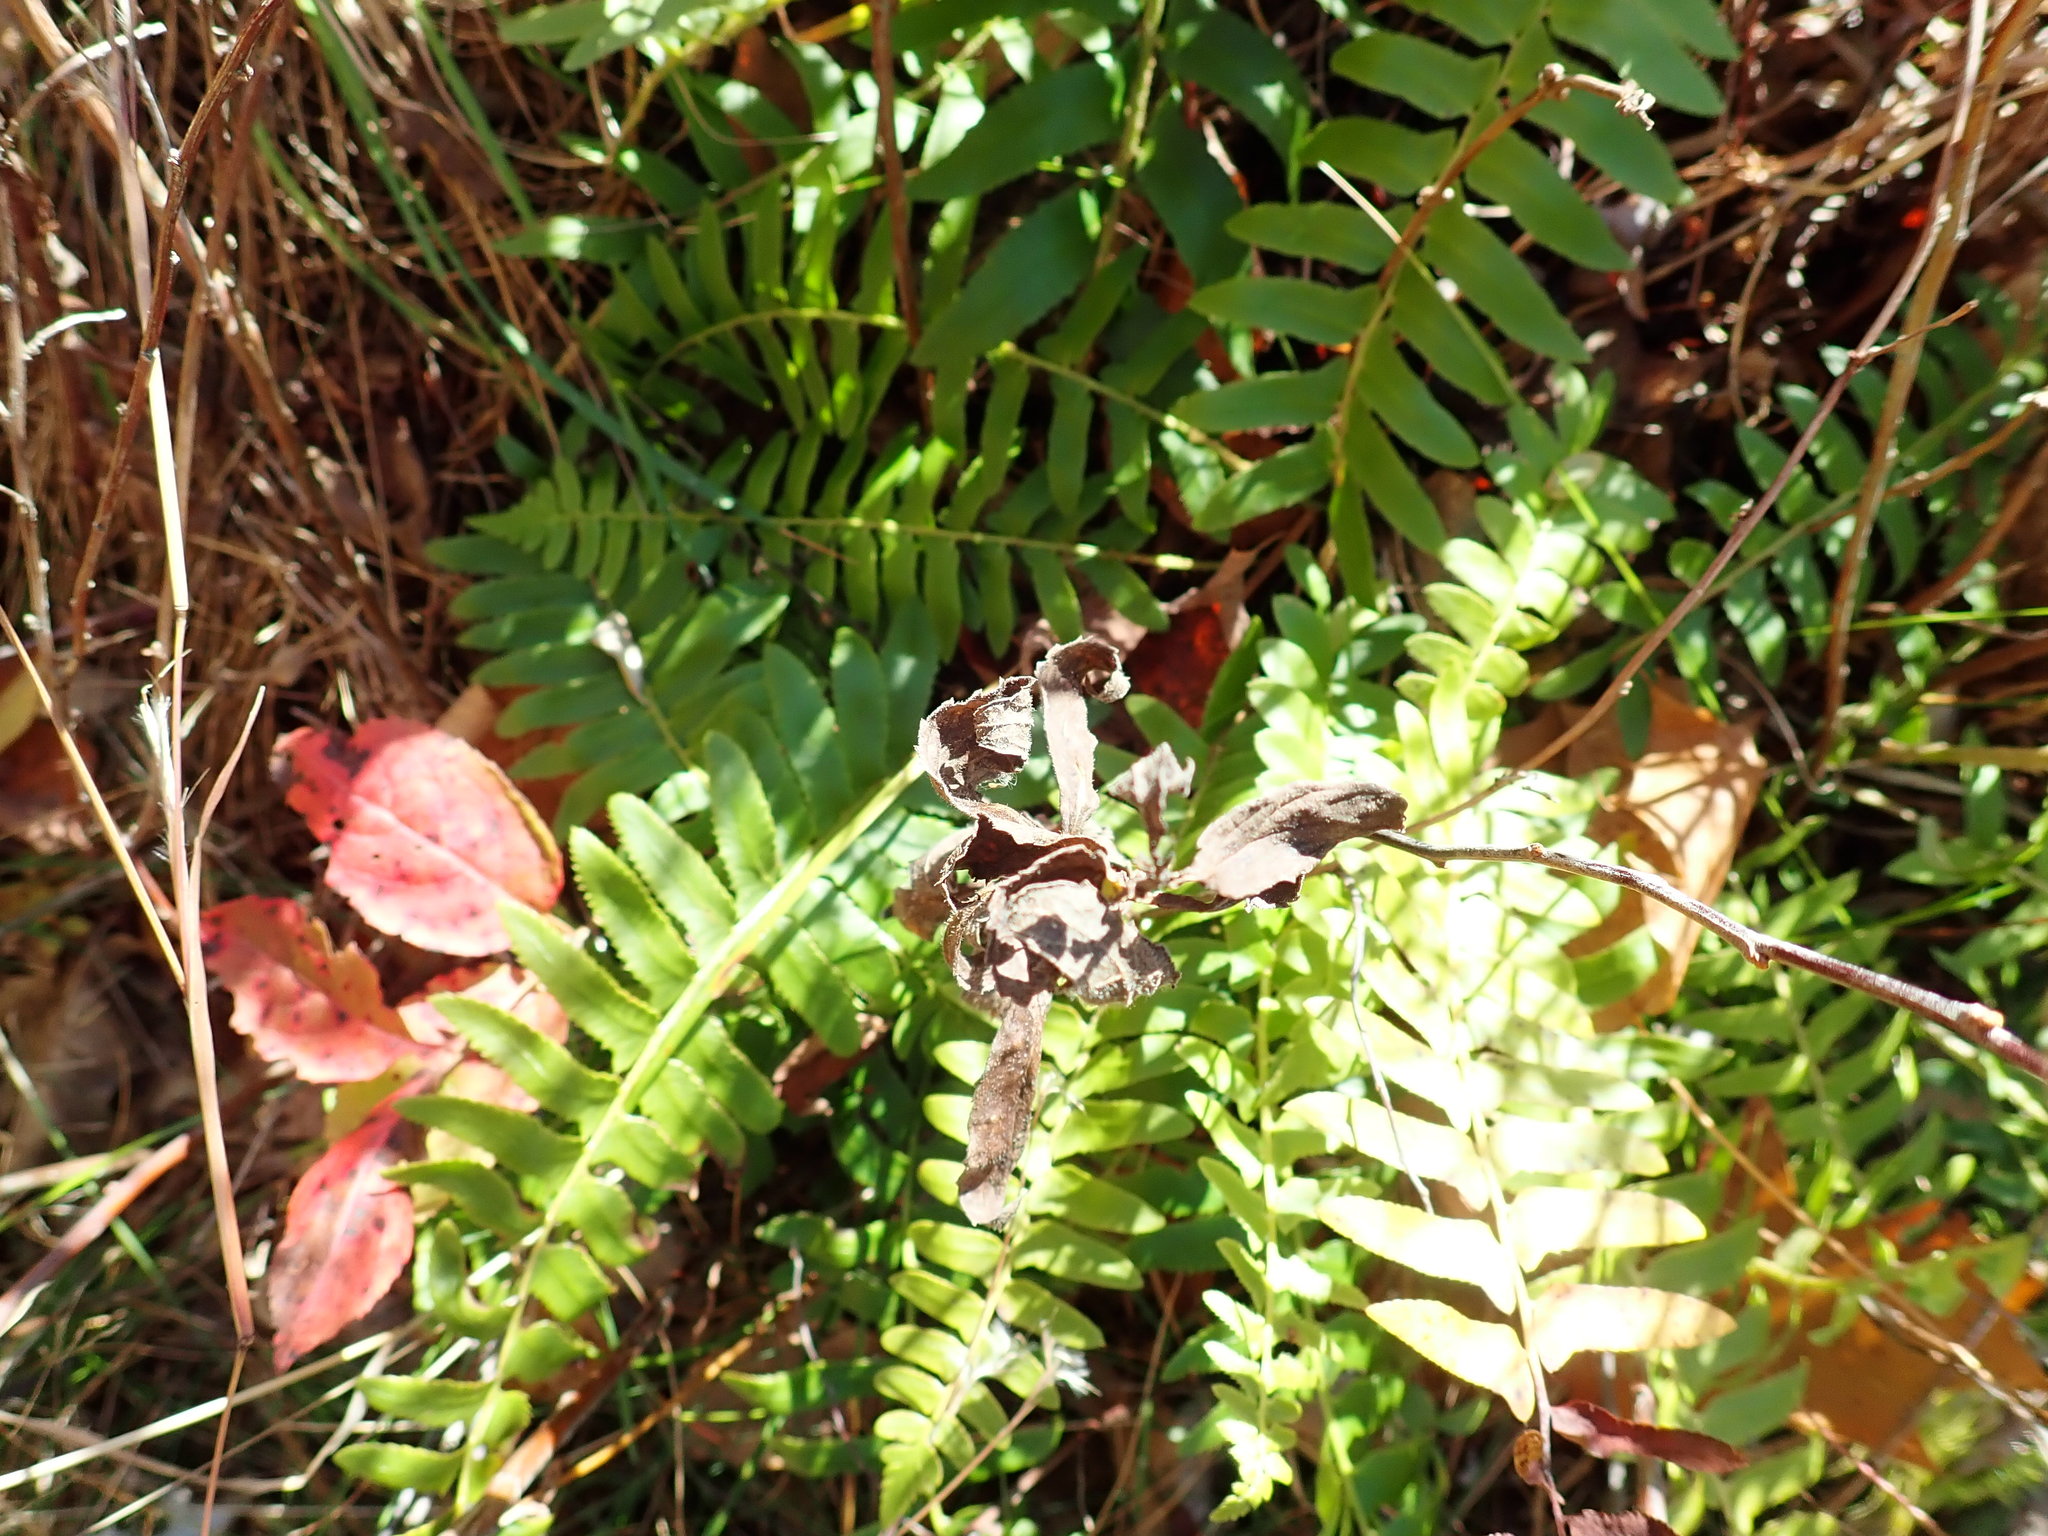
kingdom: Plantae
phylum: Tracheophyta
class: Polypodiopsida
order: Polypodiales
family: Dryopteridaceae
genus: Polystichum
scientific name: Polystichum acrostichoides
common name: Christmas fern
